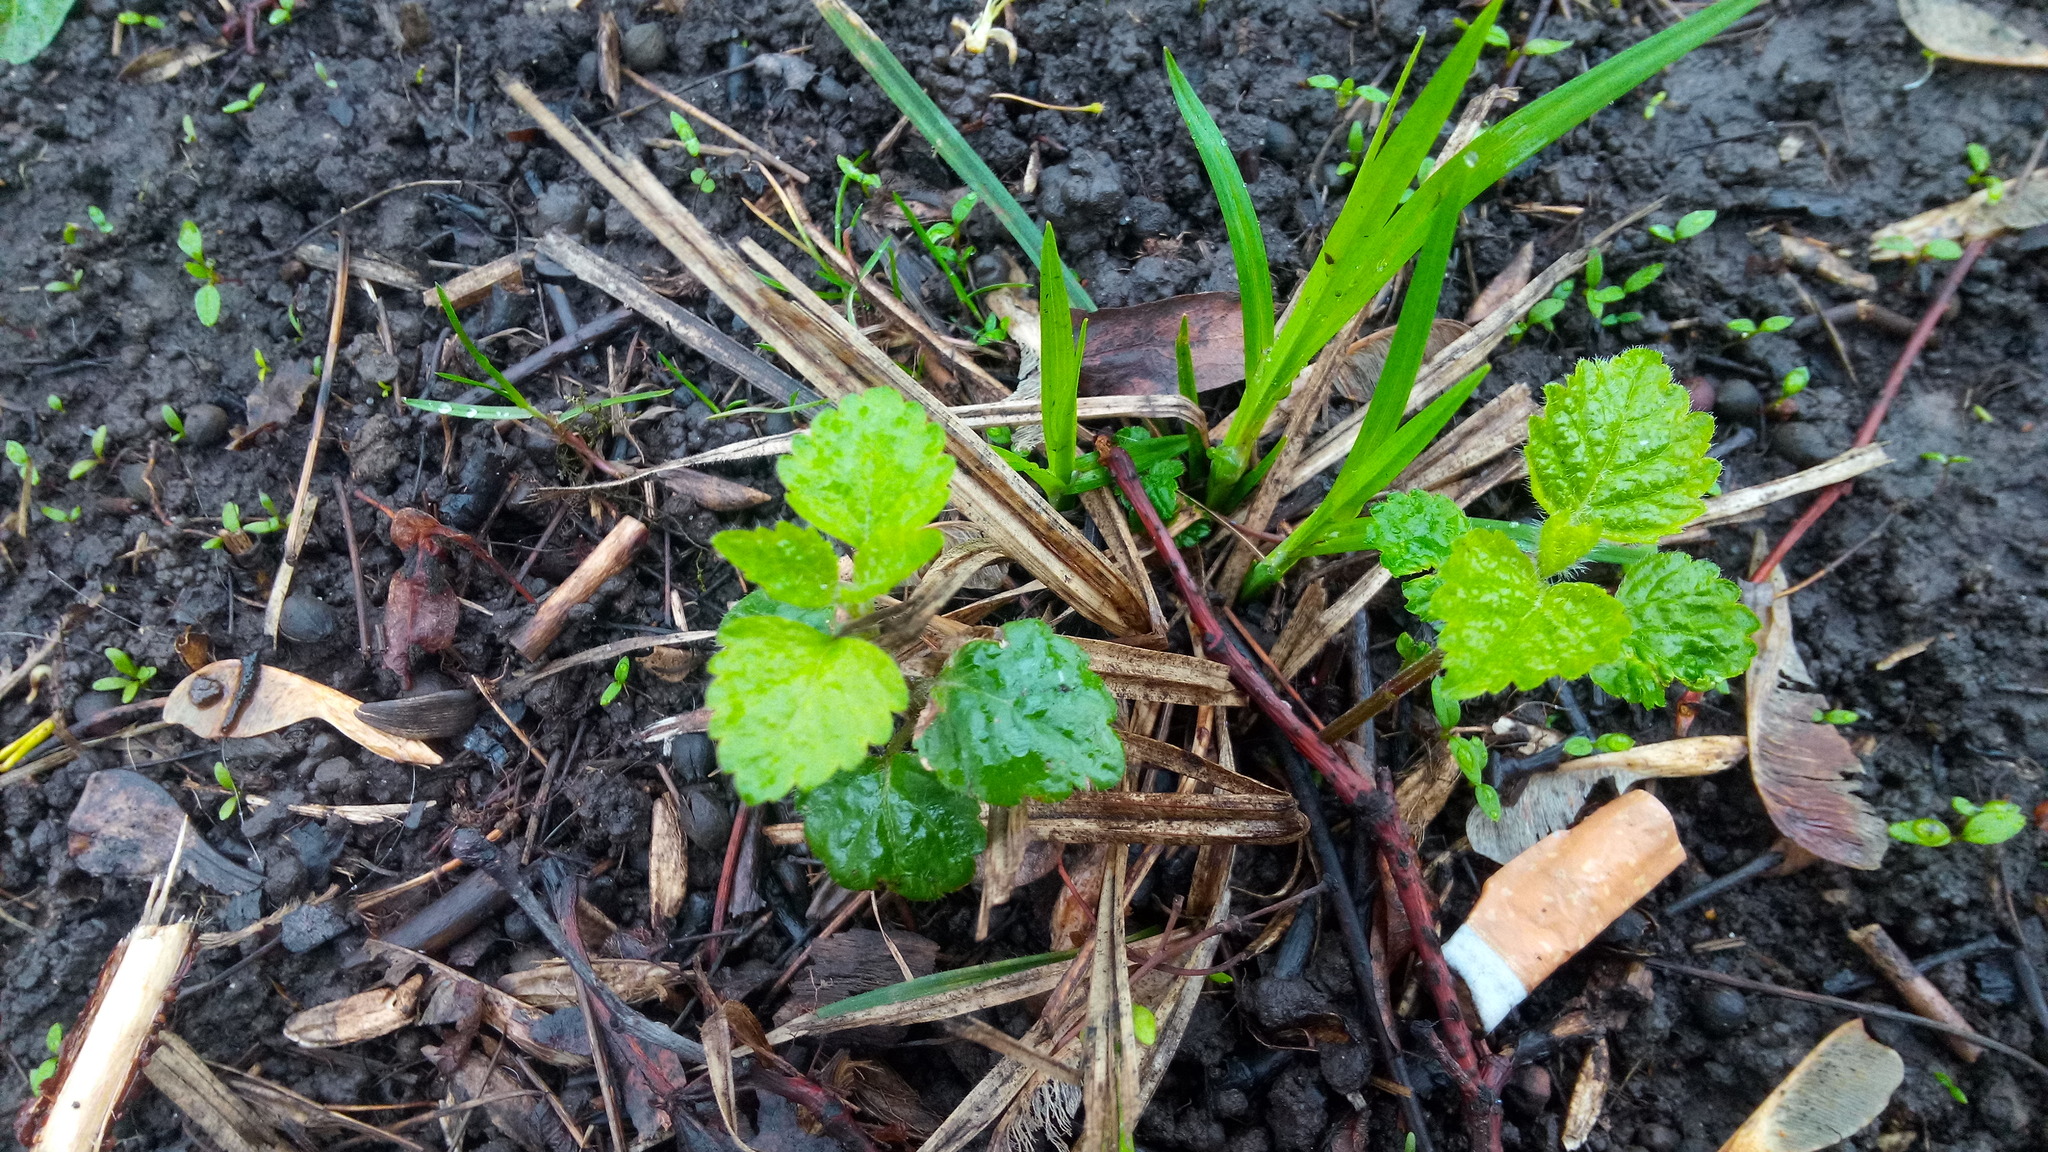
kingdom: Plantae
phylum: Tracheophyta
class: Magnoliopsida
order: Lamiales
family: Lamiaceae
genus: Lamium
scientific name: Lamium galeobdolon
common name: Yellow archangel
